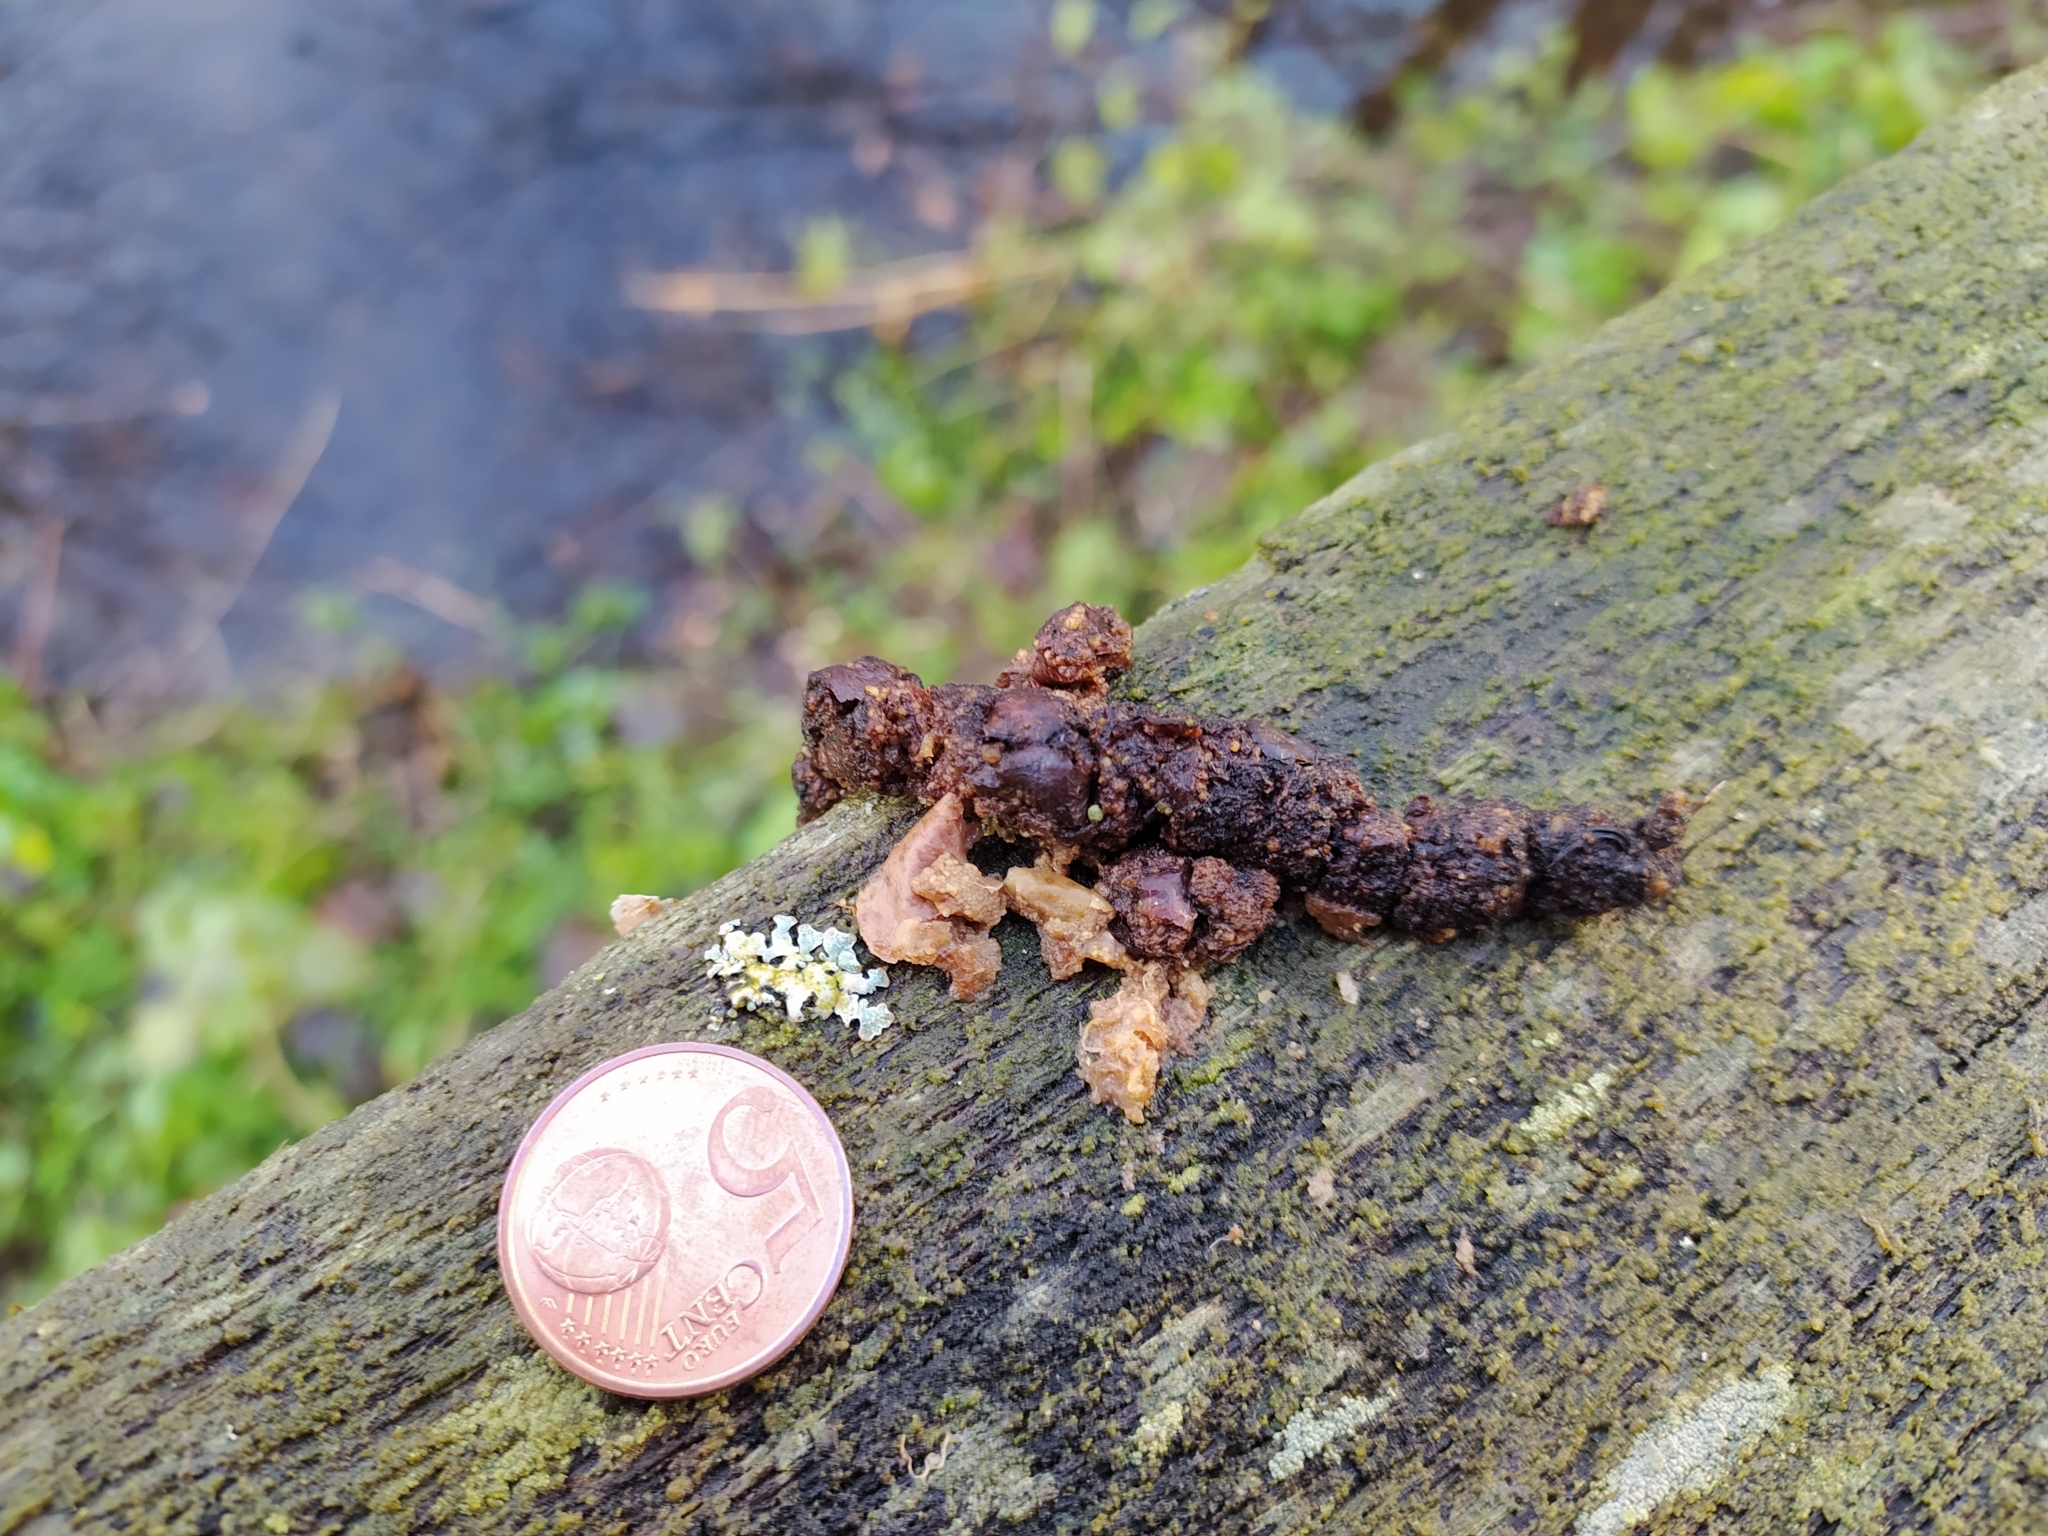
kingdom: Animalia
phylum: Chordata
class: Mammalia
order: Carnivora
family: Mustelidae
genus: Martes
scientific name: Martes foina
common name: Beech marten
